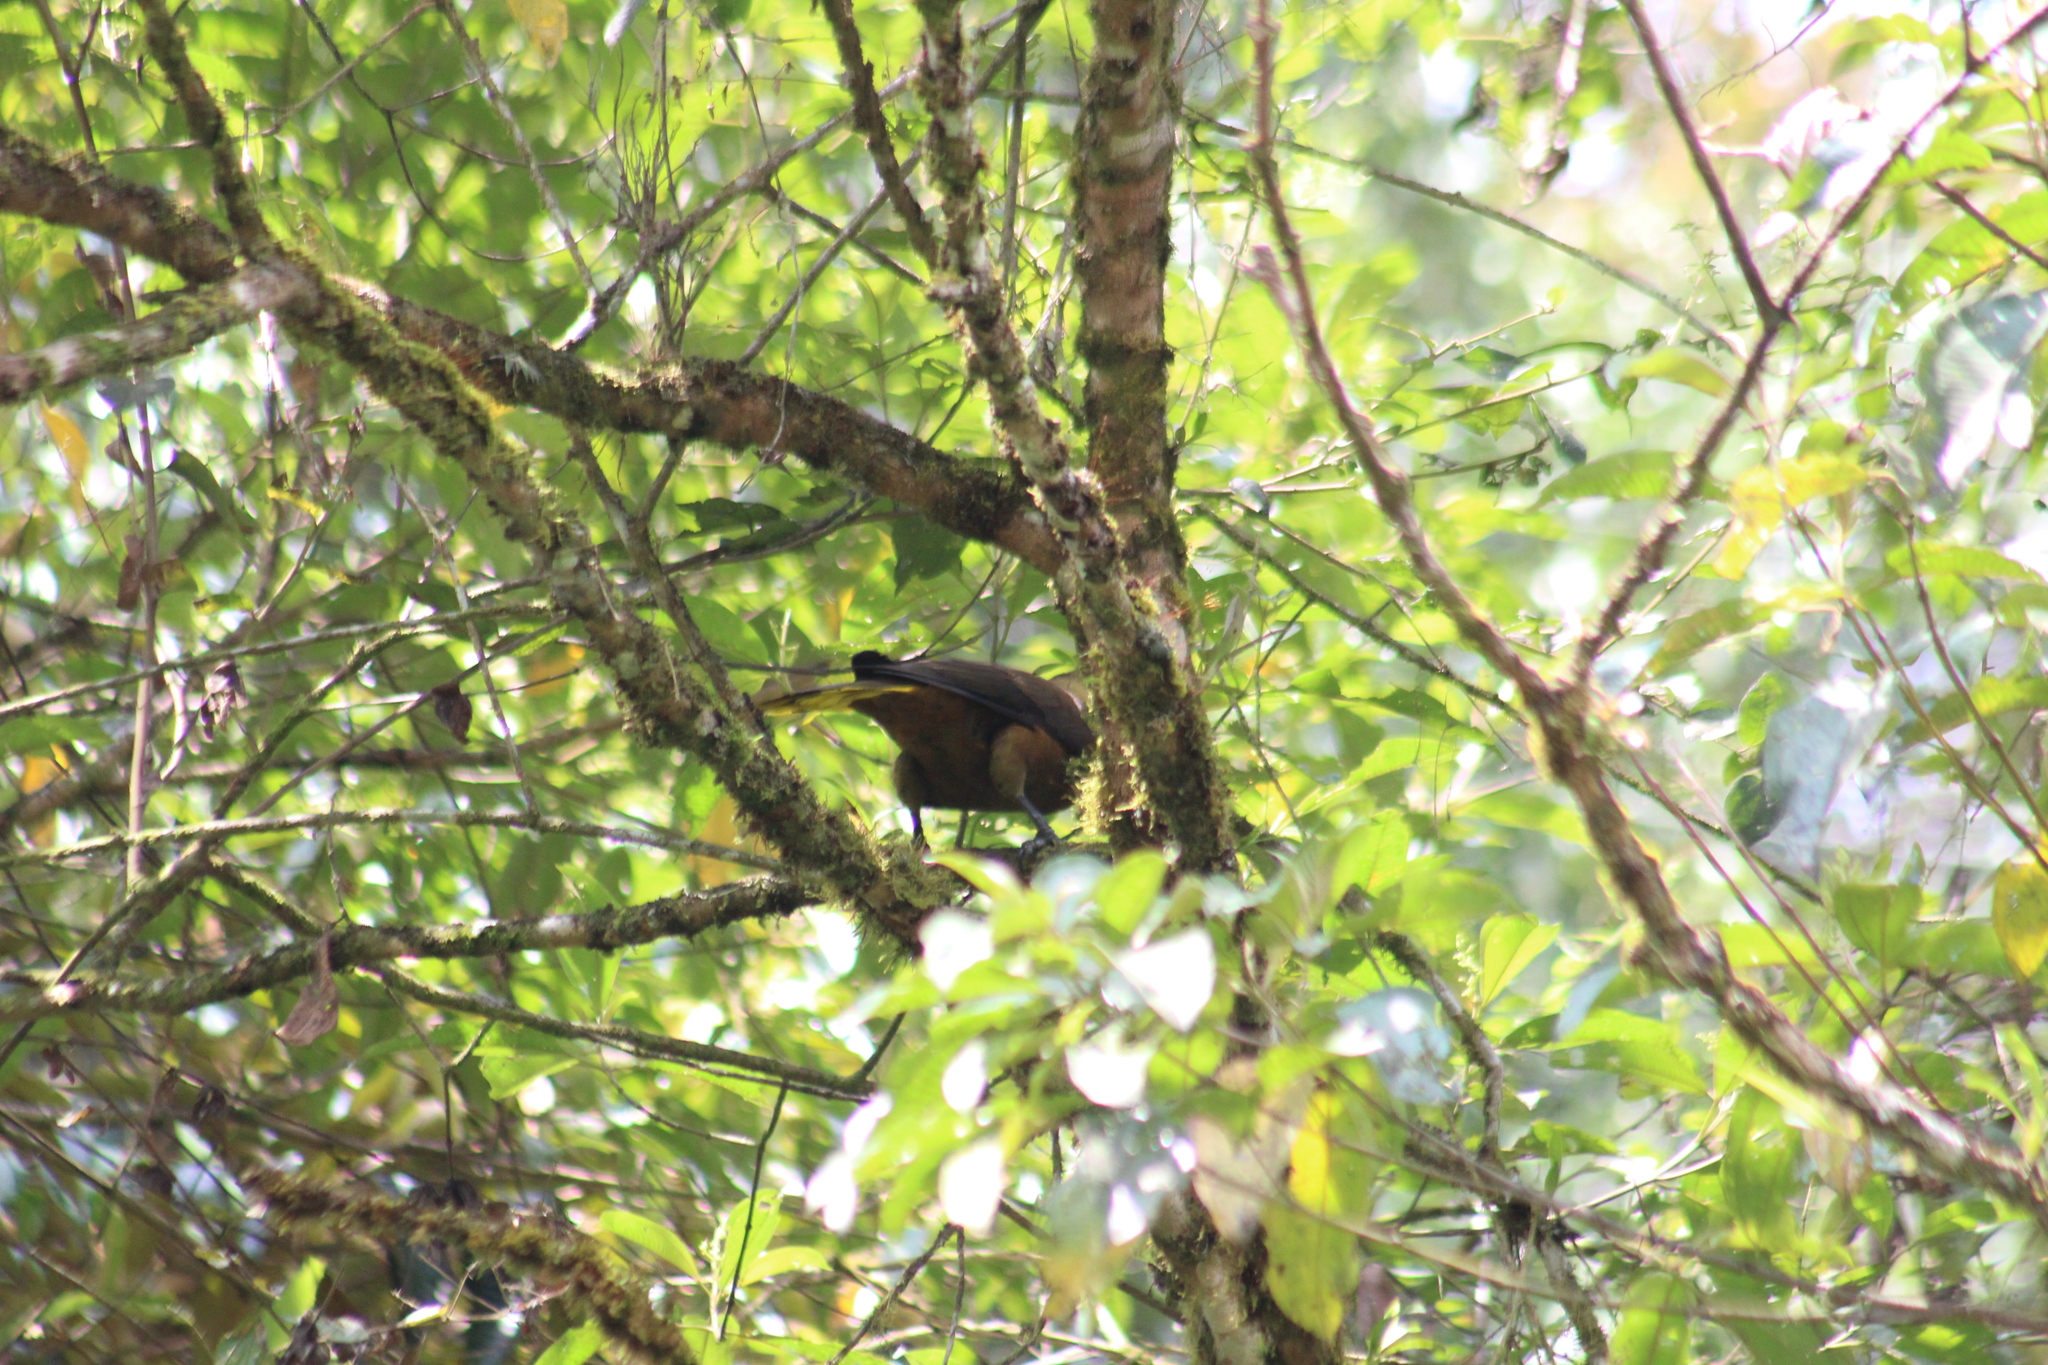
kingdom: Animalia
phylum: Chordata
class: Aves
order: Passeriformes
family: Icteridae
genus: Psarocolius
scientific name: Psarocolius angustifrons
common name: Russet-backed oropendola
